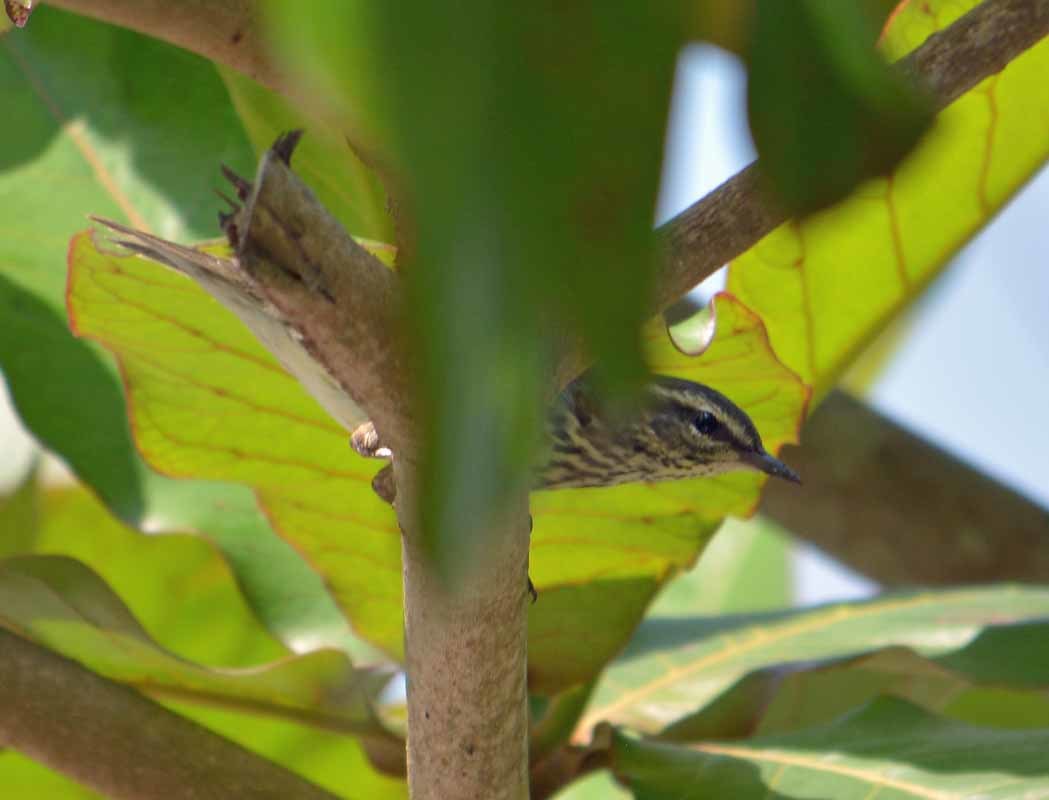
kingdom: Animalia
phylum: Chordata
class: Aves
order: Passeriformes
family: Parulidae
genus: Parkesia
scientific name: Parkesia noveboracensis
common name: Northern waterthrush
